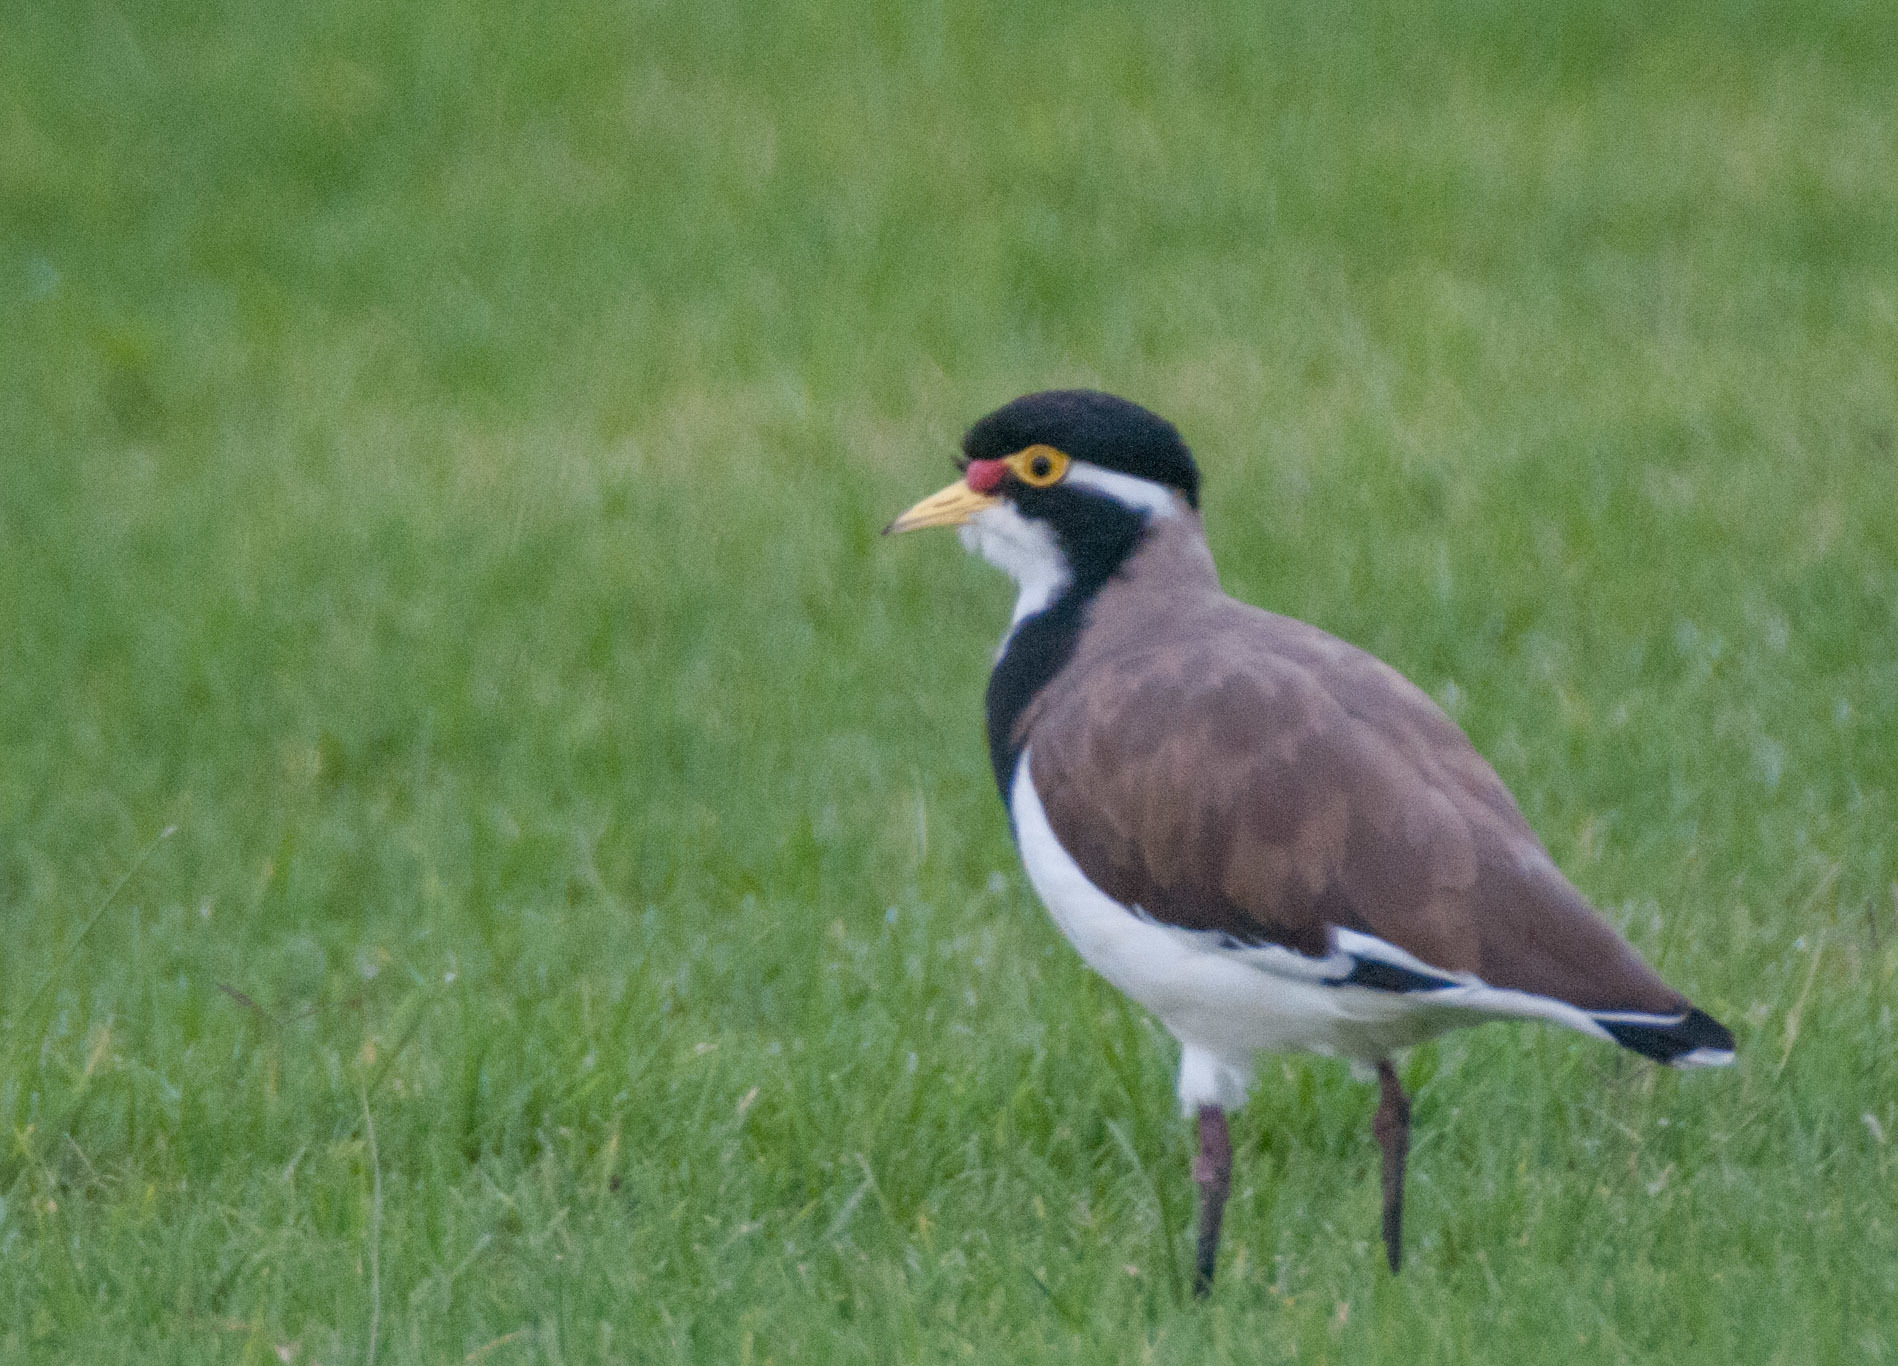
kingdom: Animalia
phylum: Chordata
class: Aves
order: Charadriiformes
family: Charadriidae
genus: Vanellus
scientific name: Vanellus tricolor
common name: Banded lapwing
